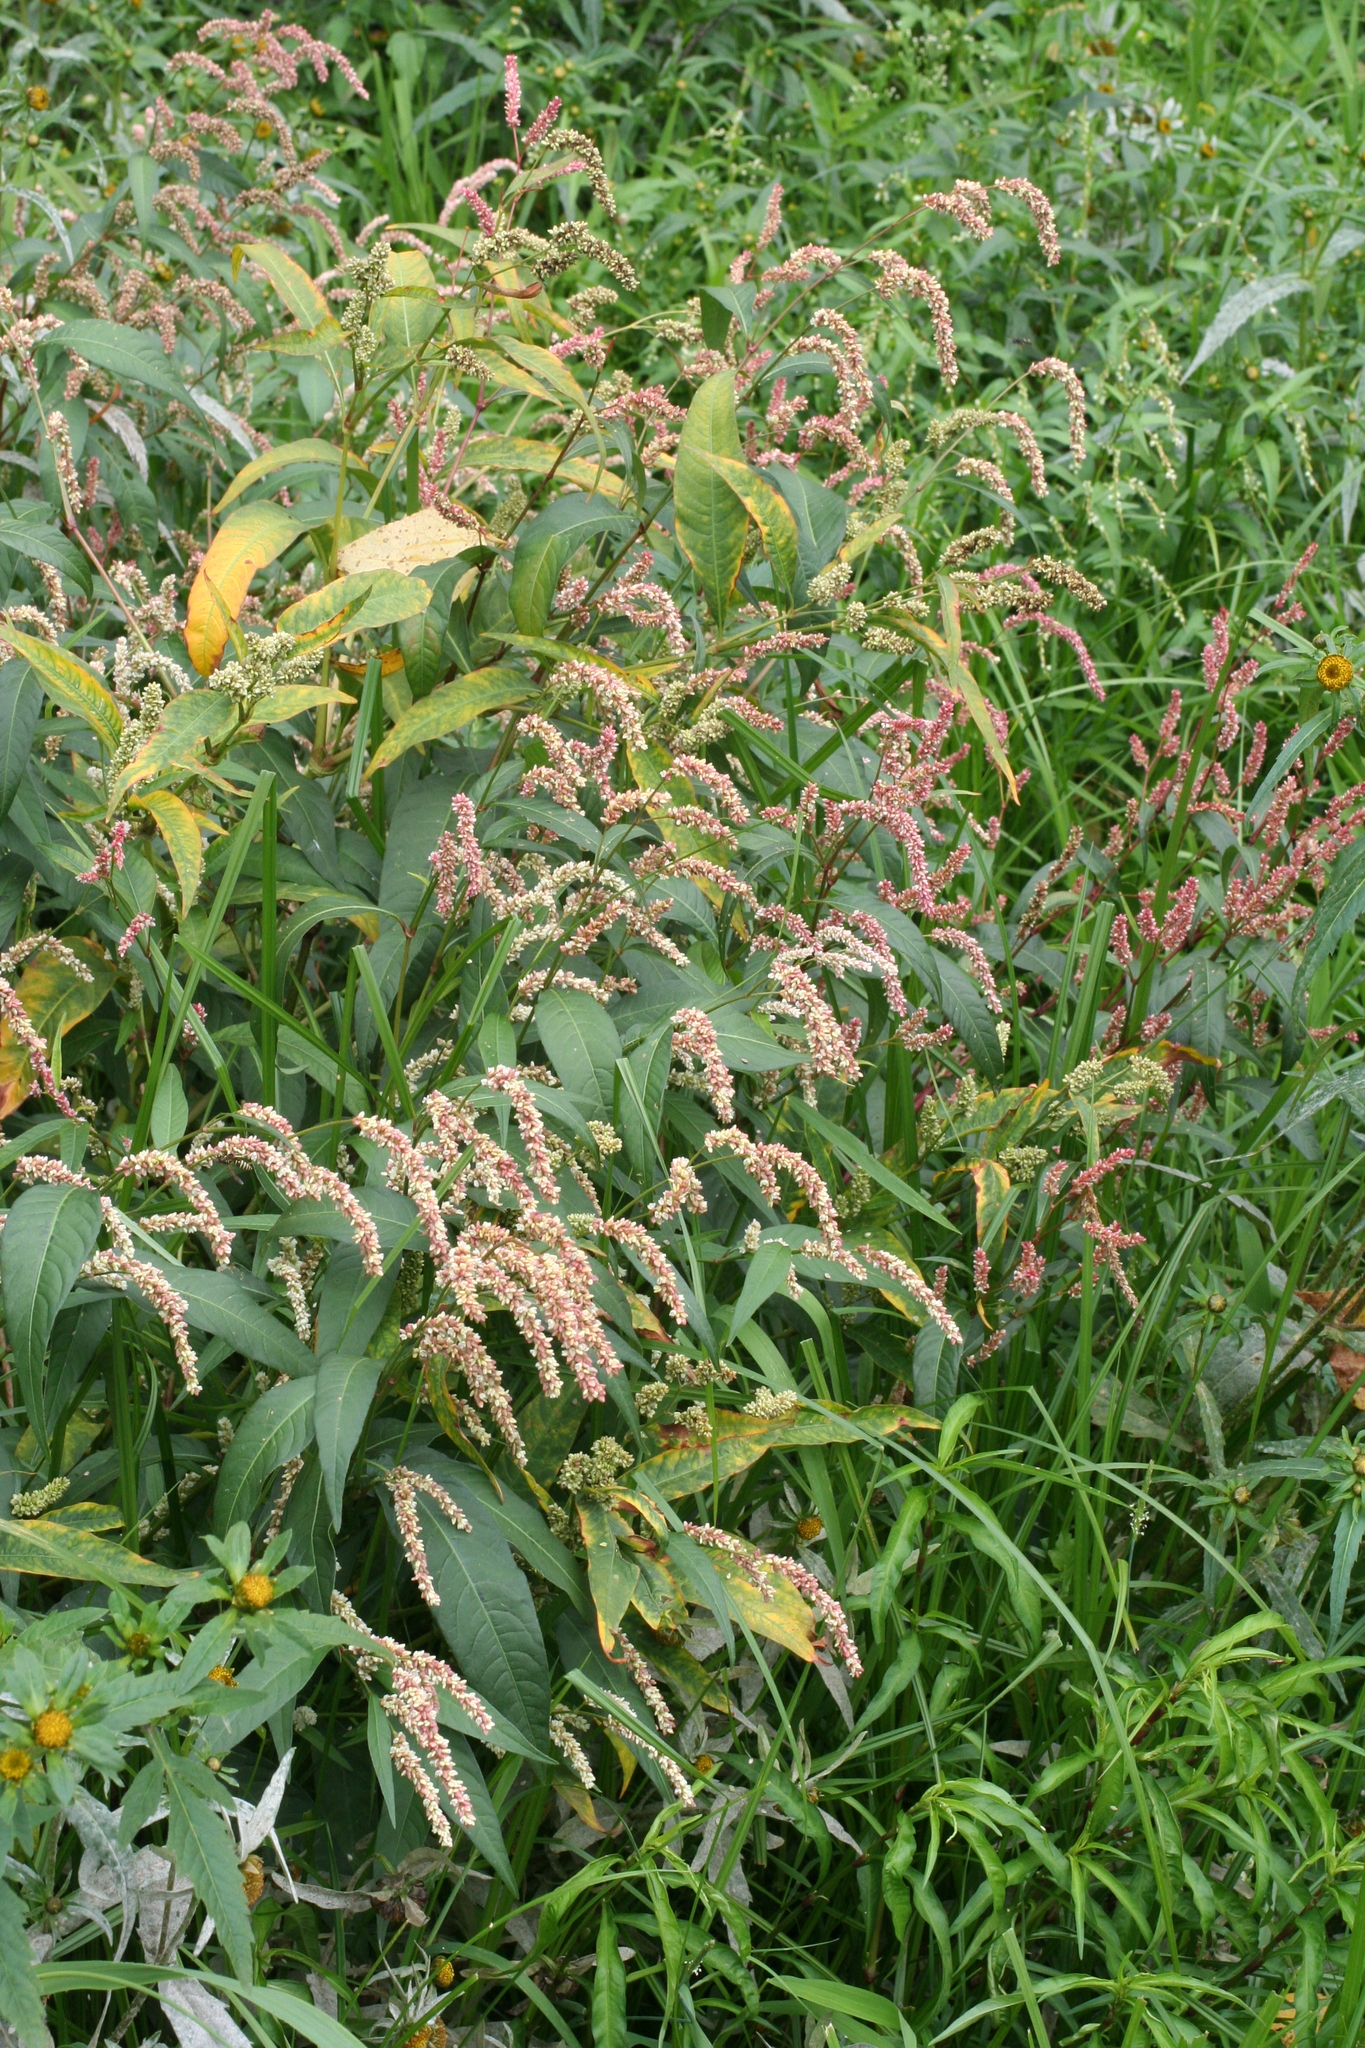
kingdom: Plantae
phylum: Tracheophyta
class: Magnoliopsida
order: Caryophyllales
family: Polygonaceae
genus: Persicaria
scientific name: Persicaria lapathifolia
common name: Curlytop knotweed
